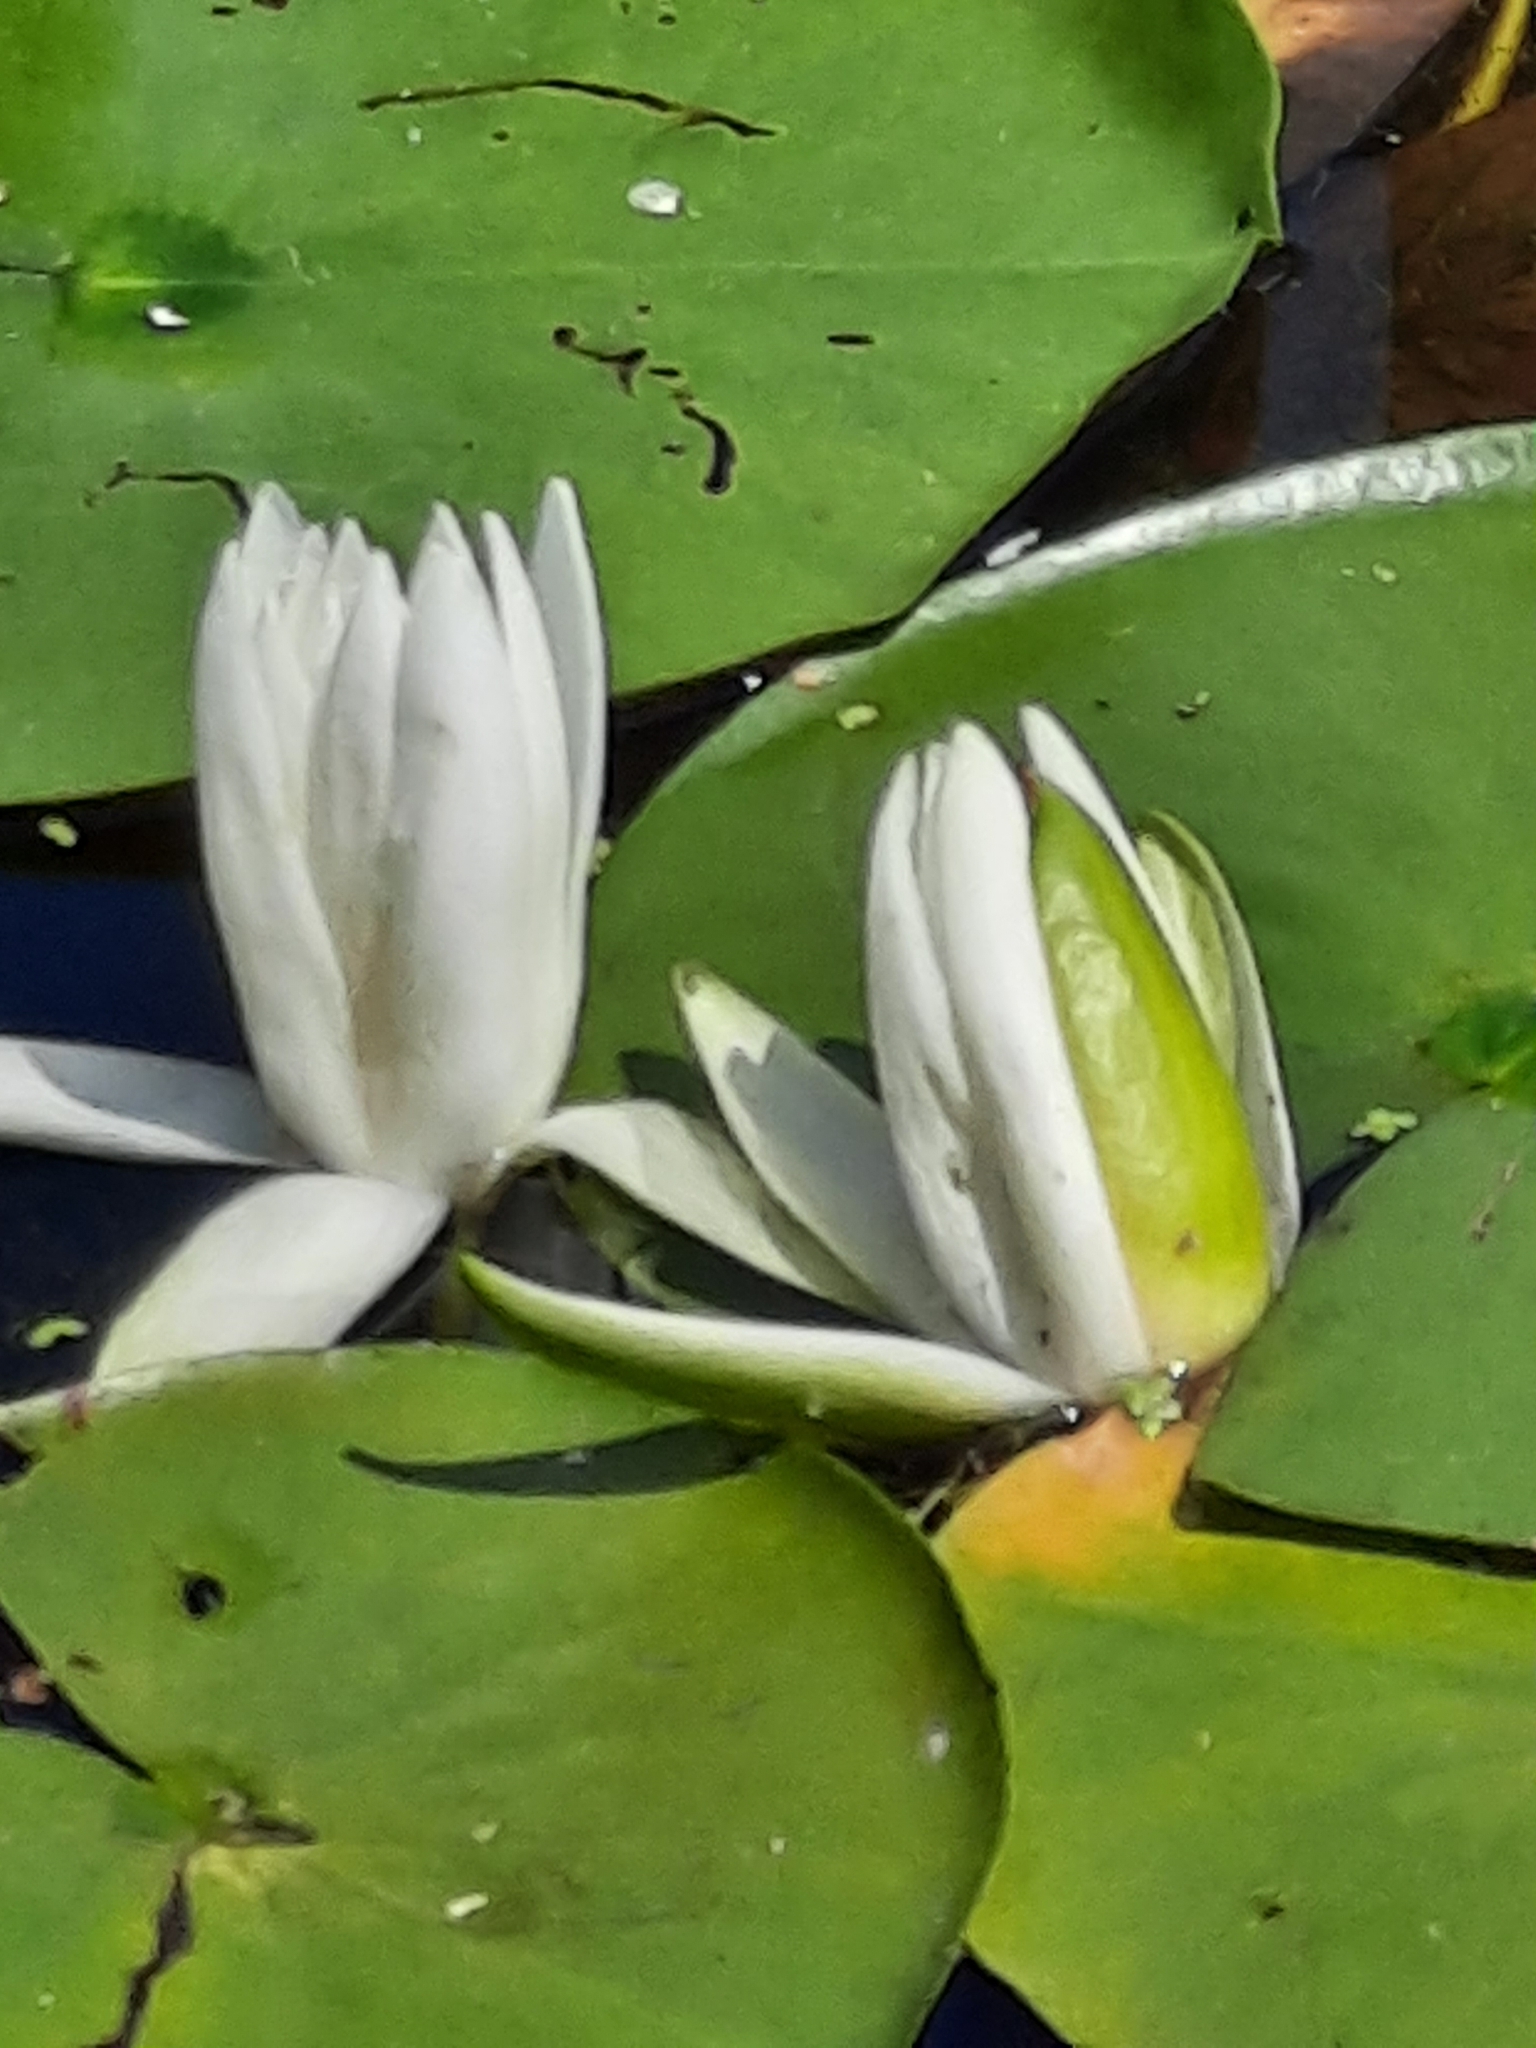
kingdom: Plantae
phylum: Tracheophyta
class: Magnoliopsida
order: Nymphaeales
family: Nymphaeaceae
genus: Nymphaea
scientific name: Nymphaea odorata
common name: Fragrant water-lily
